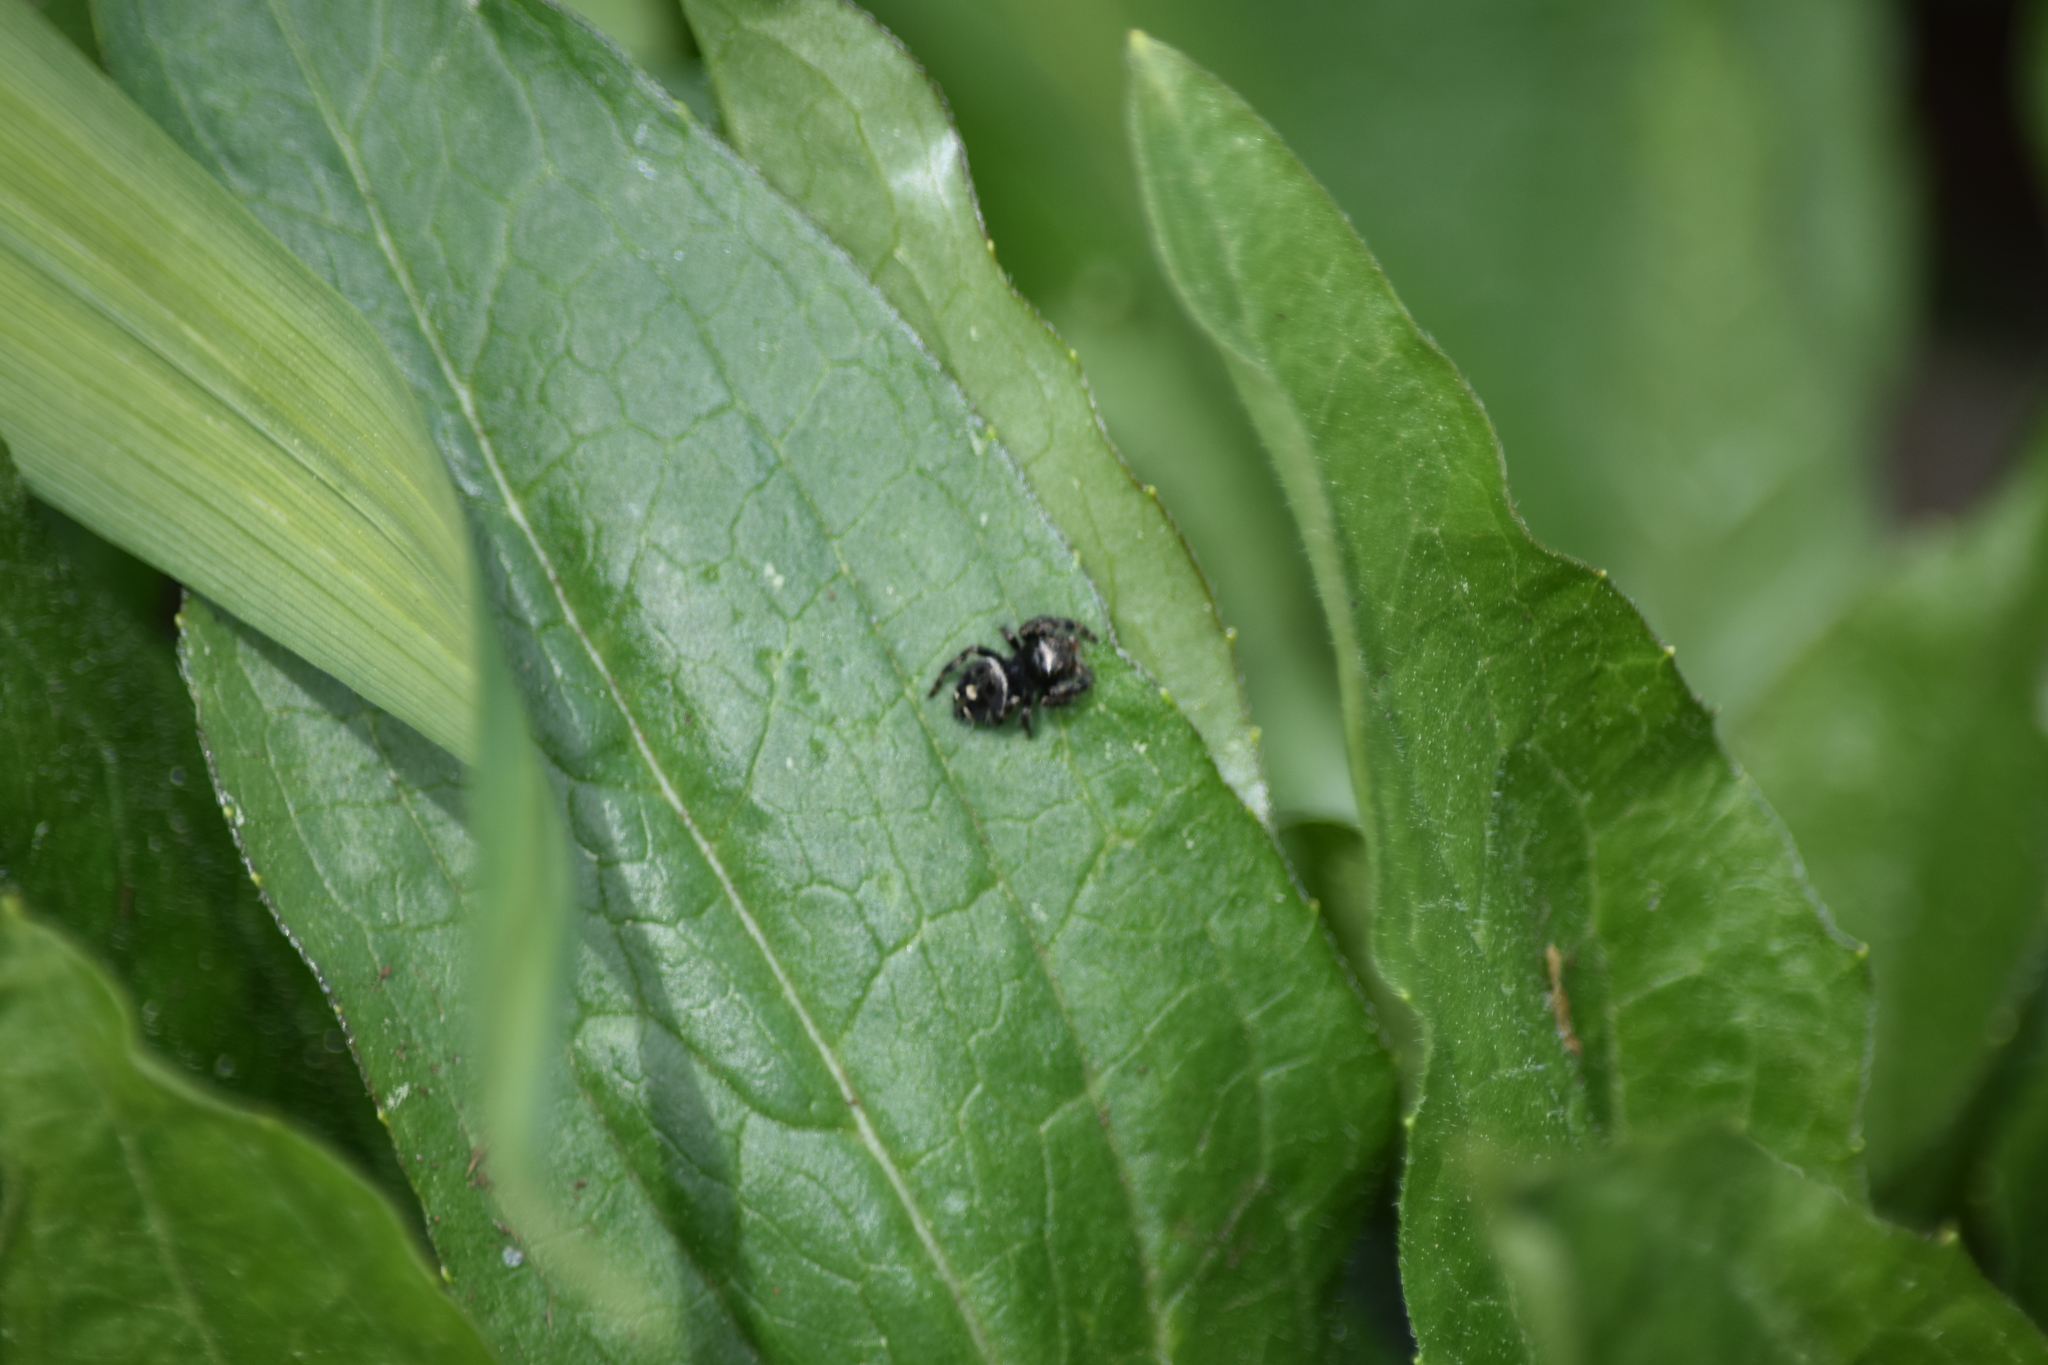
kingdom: Animalia
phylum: Arthropoda
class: Arachnida
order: Araneae
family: Salticidae
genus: Phidippus
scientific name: Phidippus audax
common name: Bold jumper
